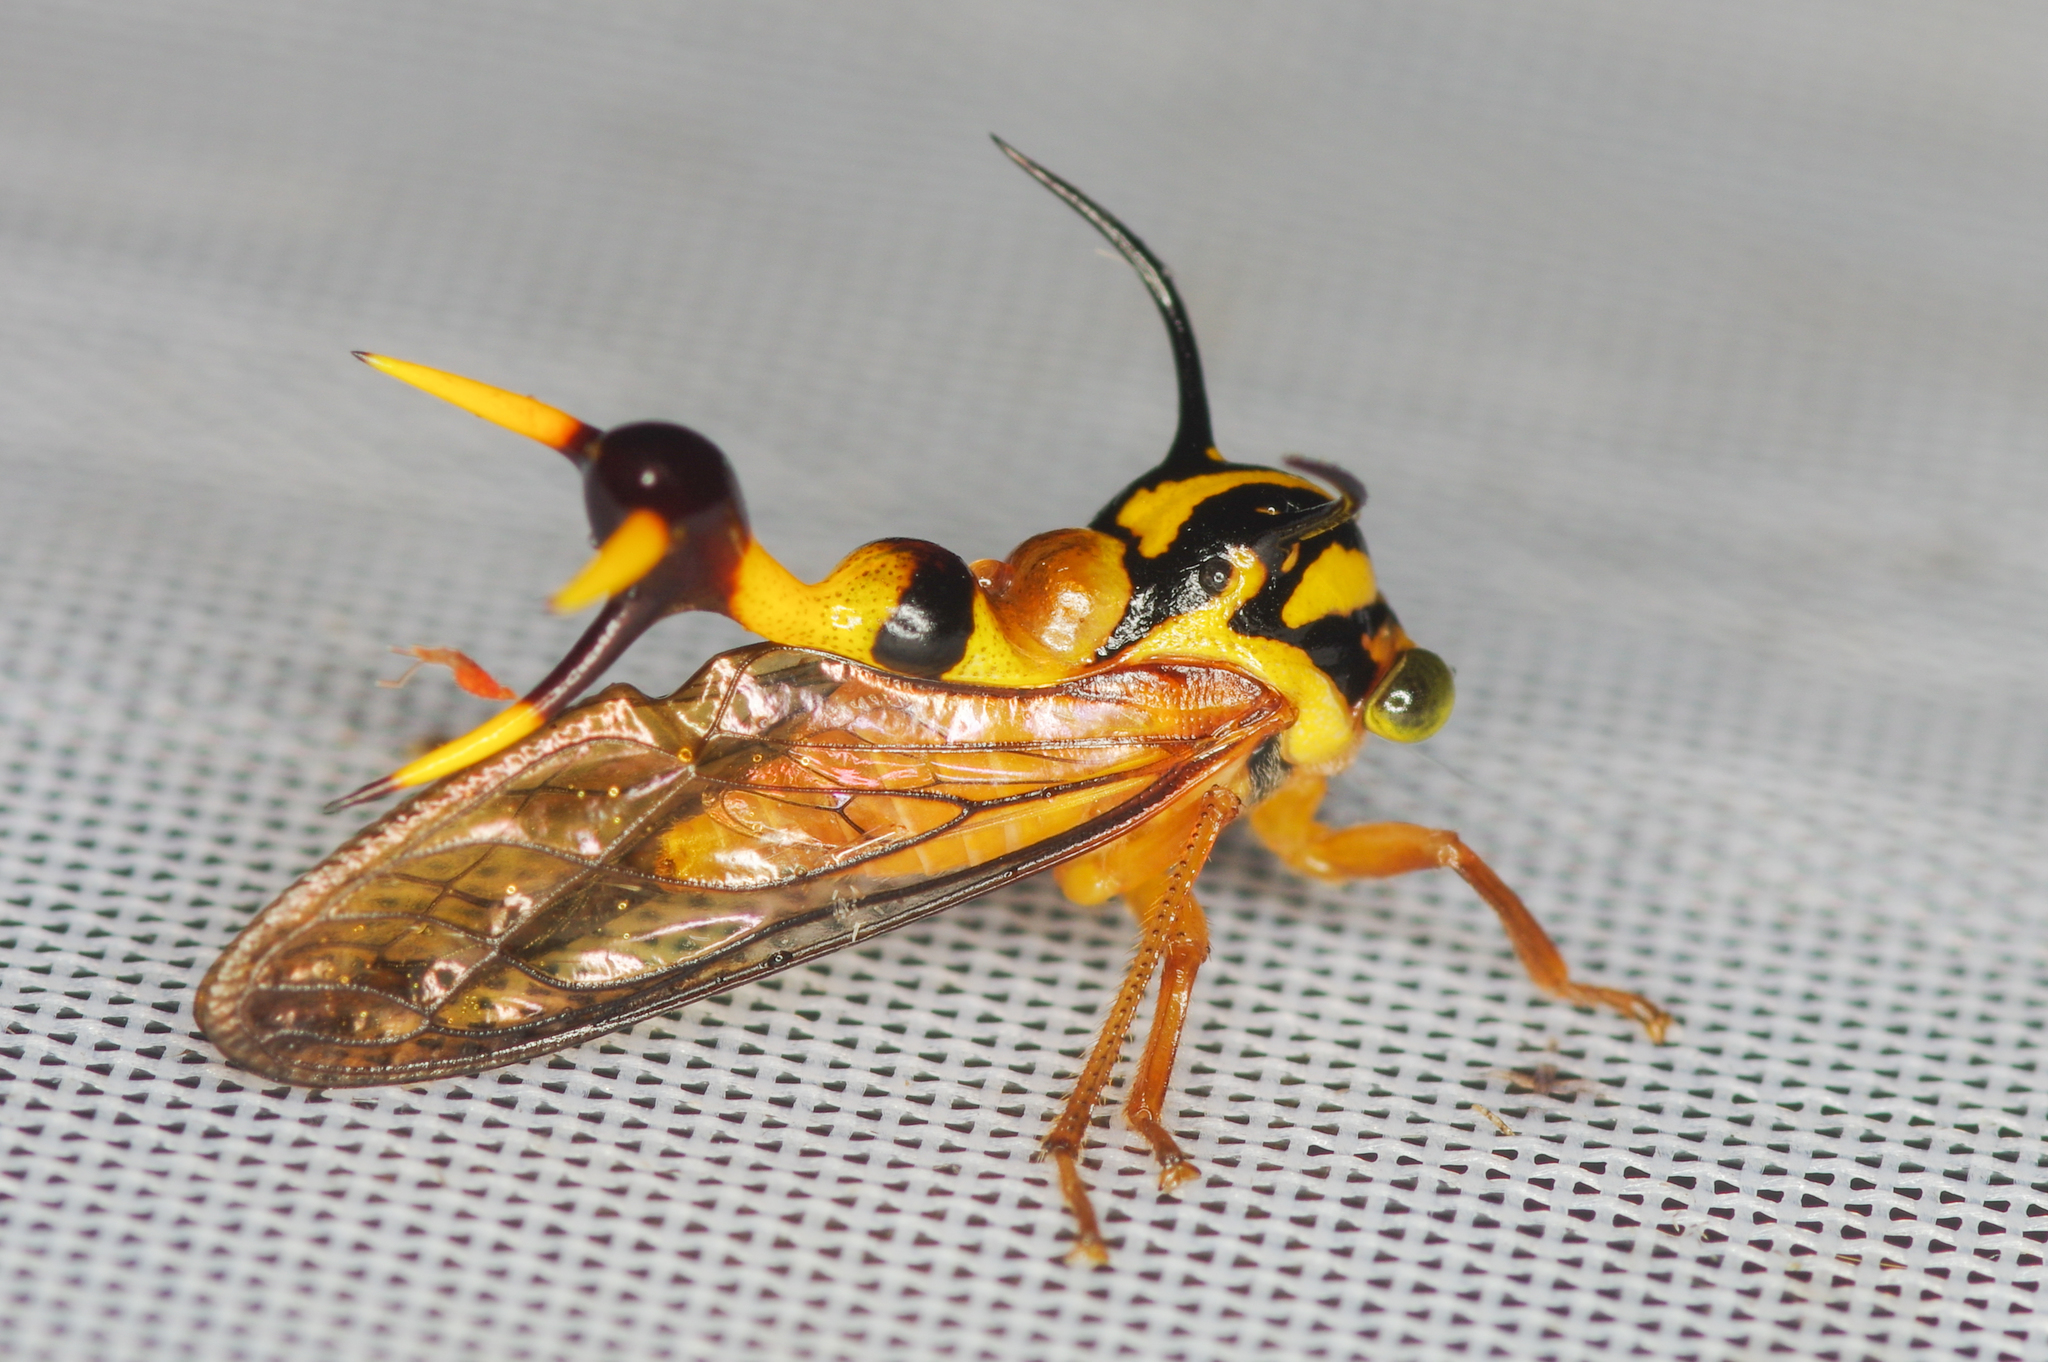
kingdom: Animalia
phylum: Arthropoda
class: Insecta
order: Hemiptera
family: Membracidae
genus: Heteronotus
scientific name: Heteronotus brindleyi
